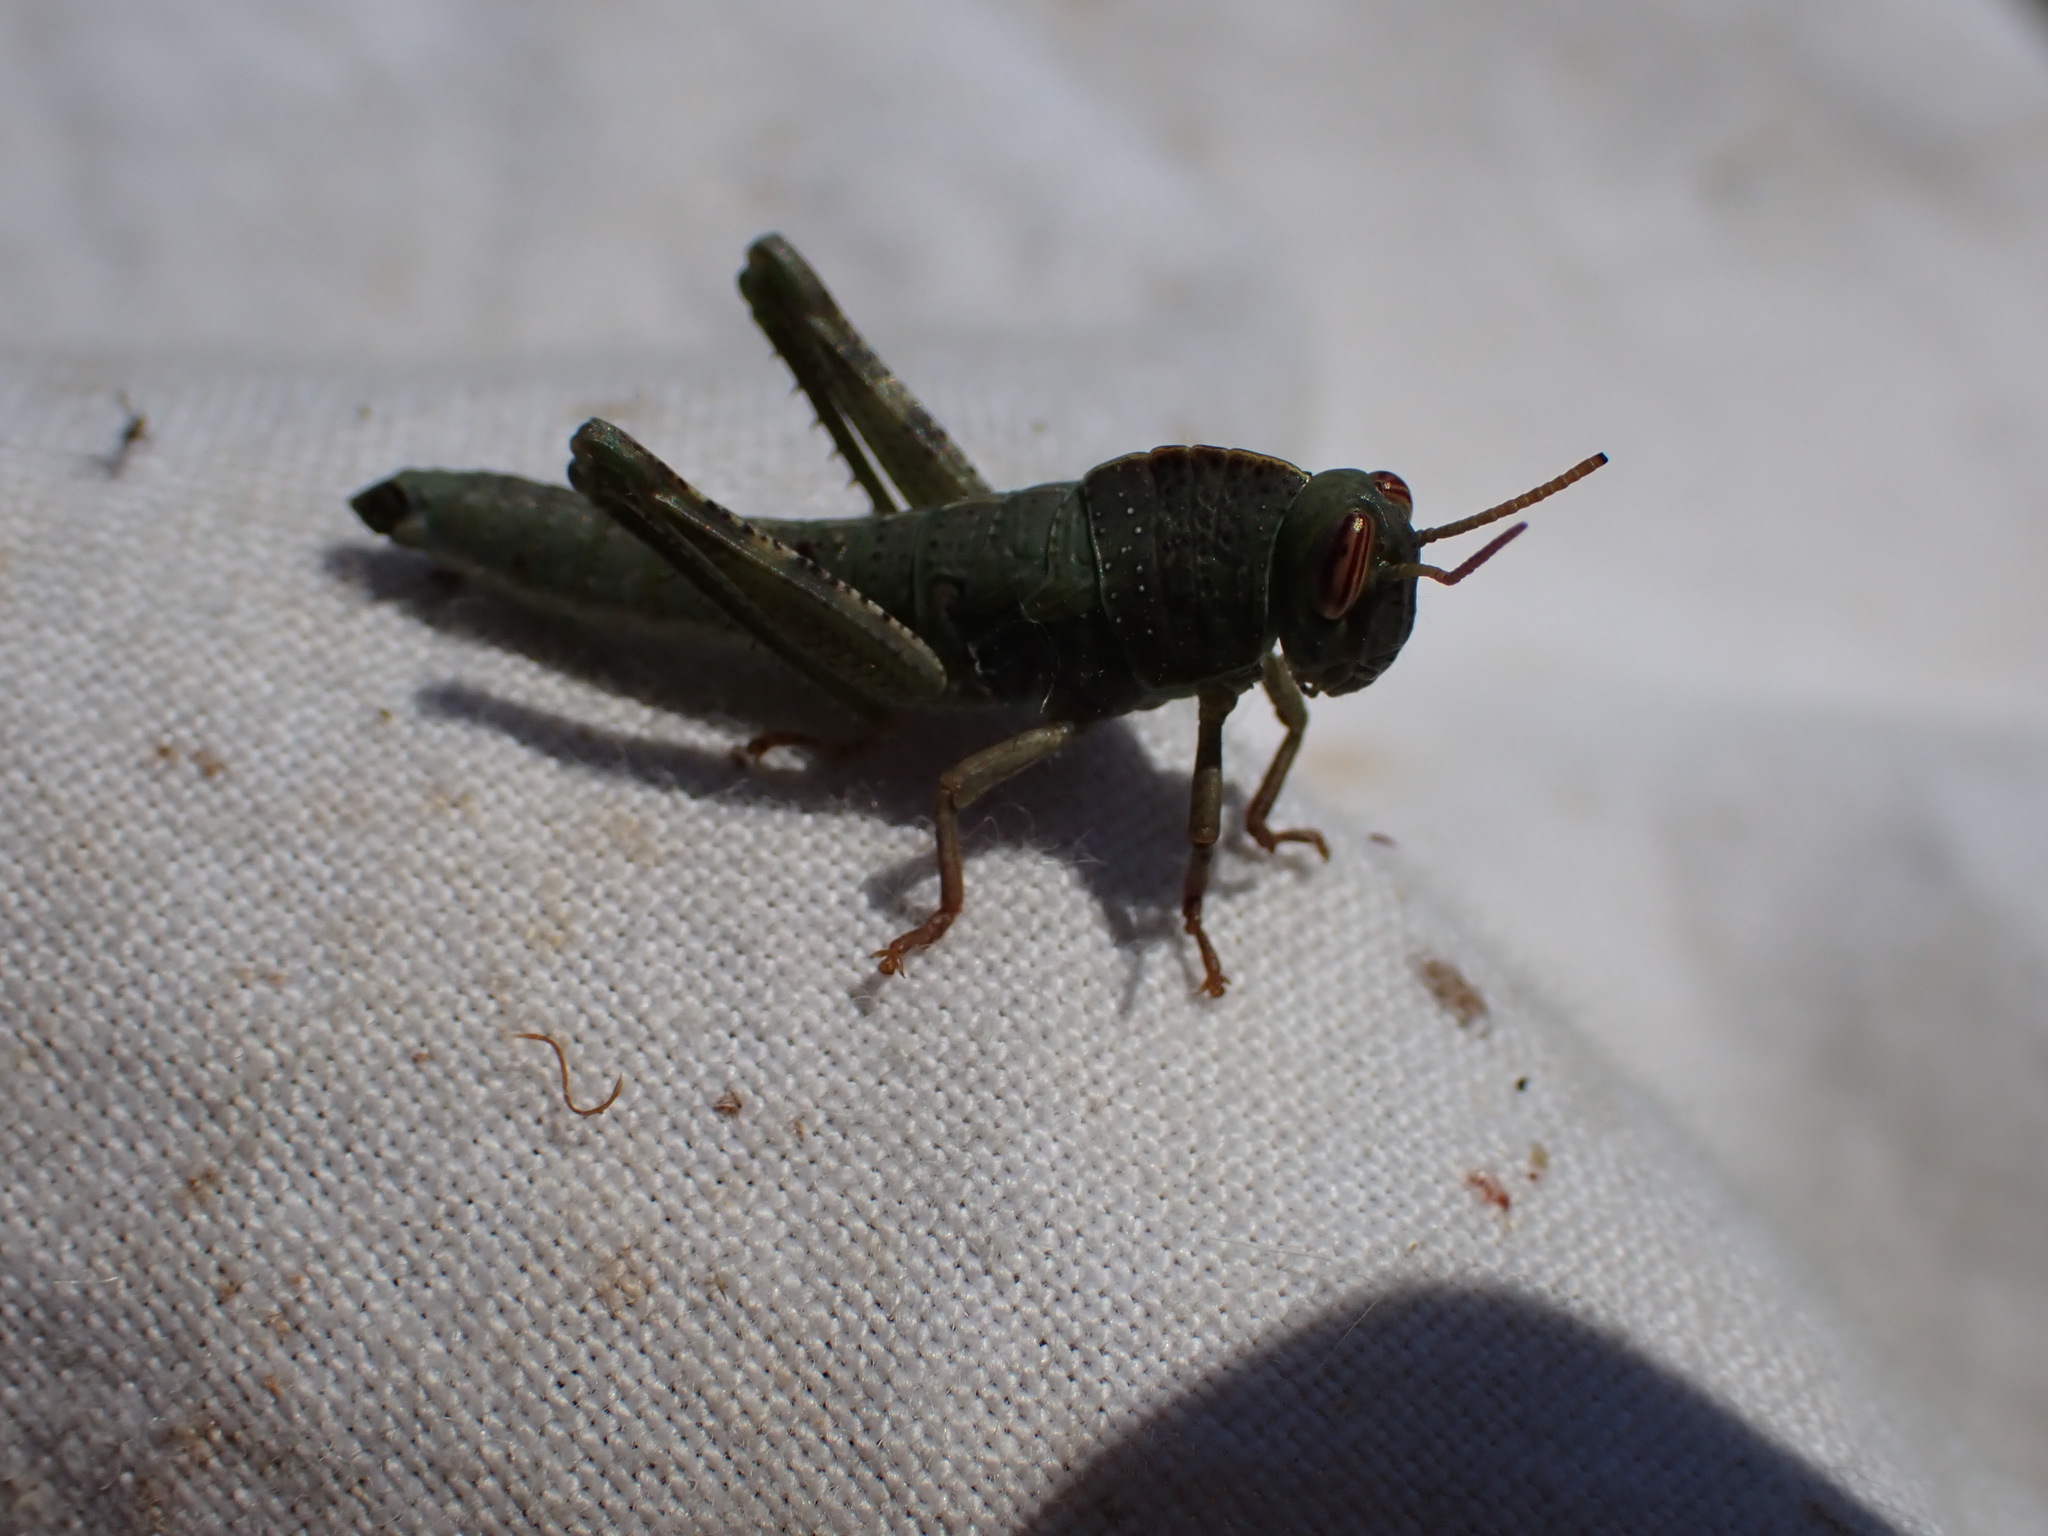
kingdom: Animalia
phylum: Arthropoda
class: Insecta
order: Orthoptera
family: Acrididae
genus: Anacridium
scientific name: Anacridium aegyptium
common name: Egyptian grasshopper
